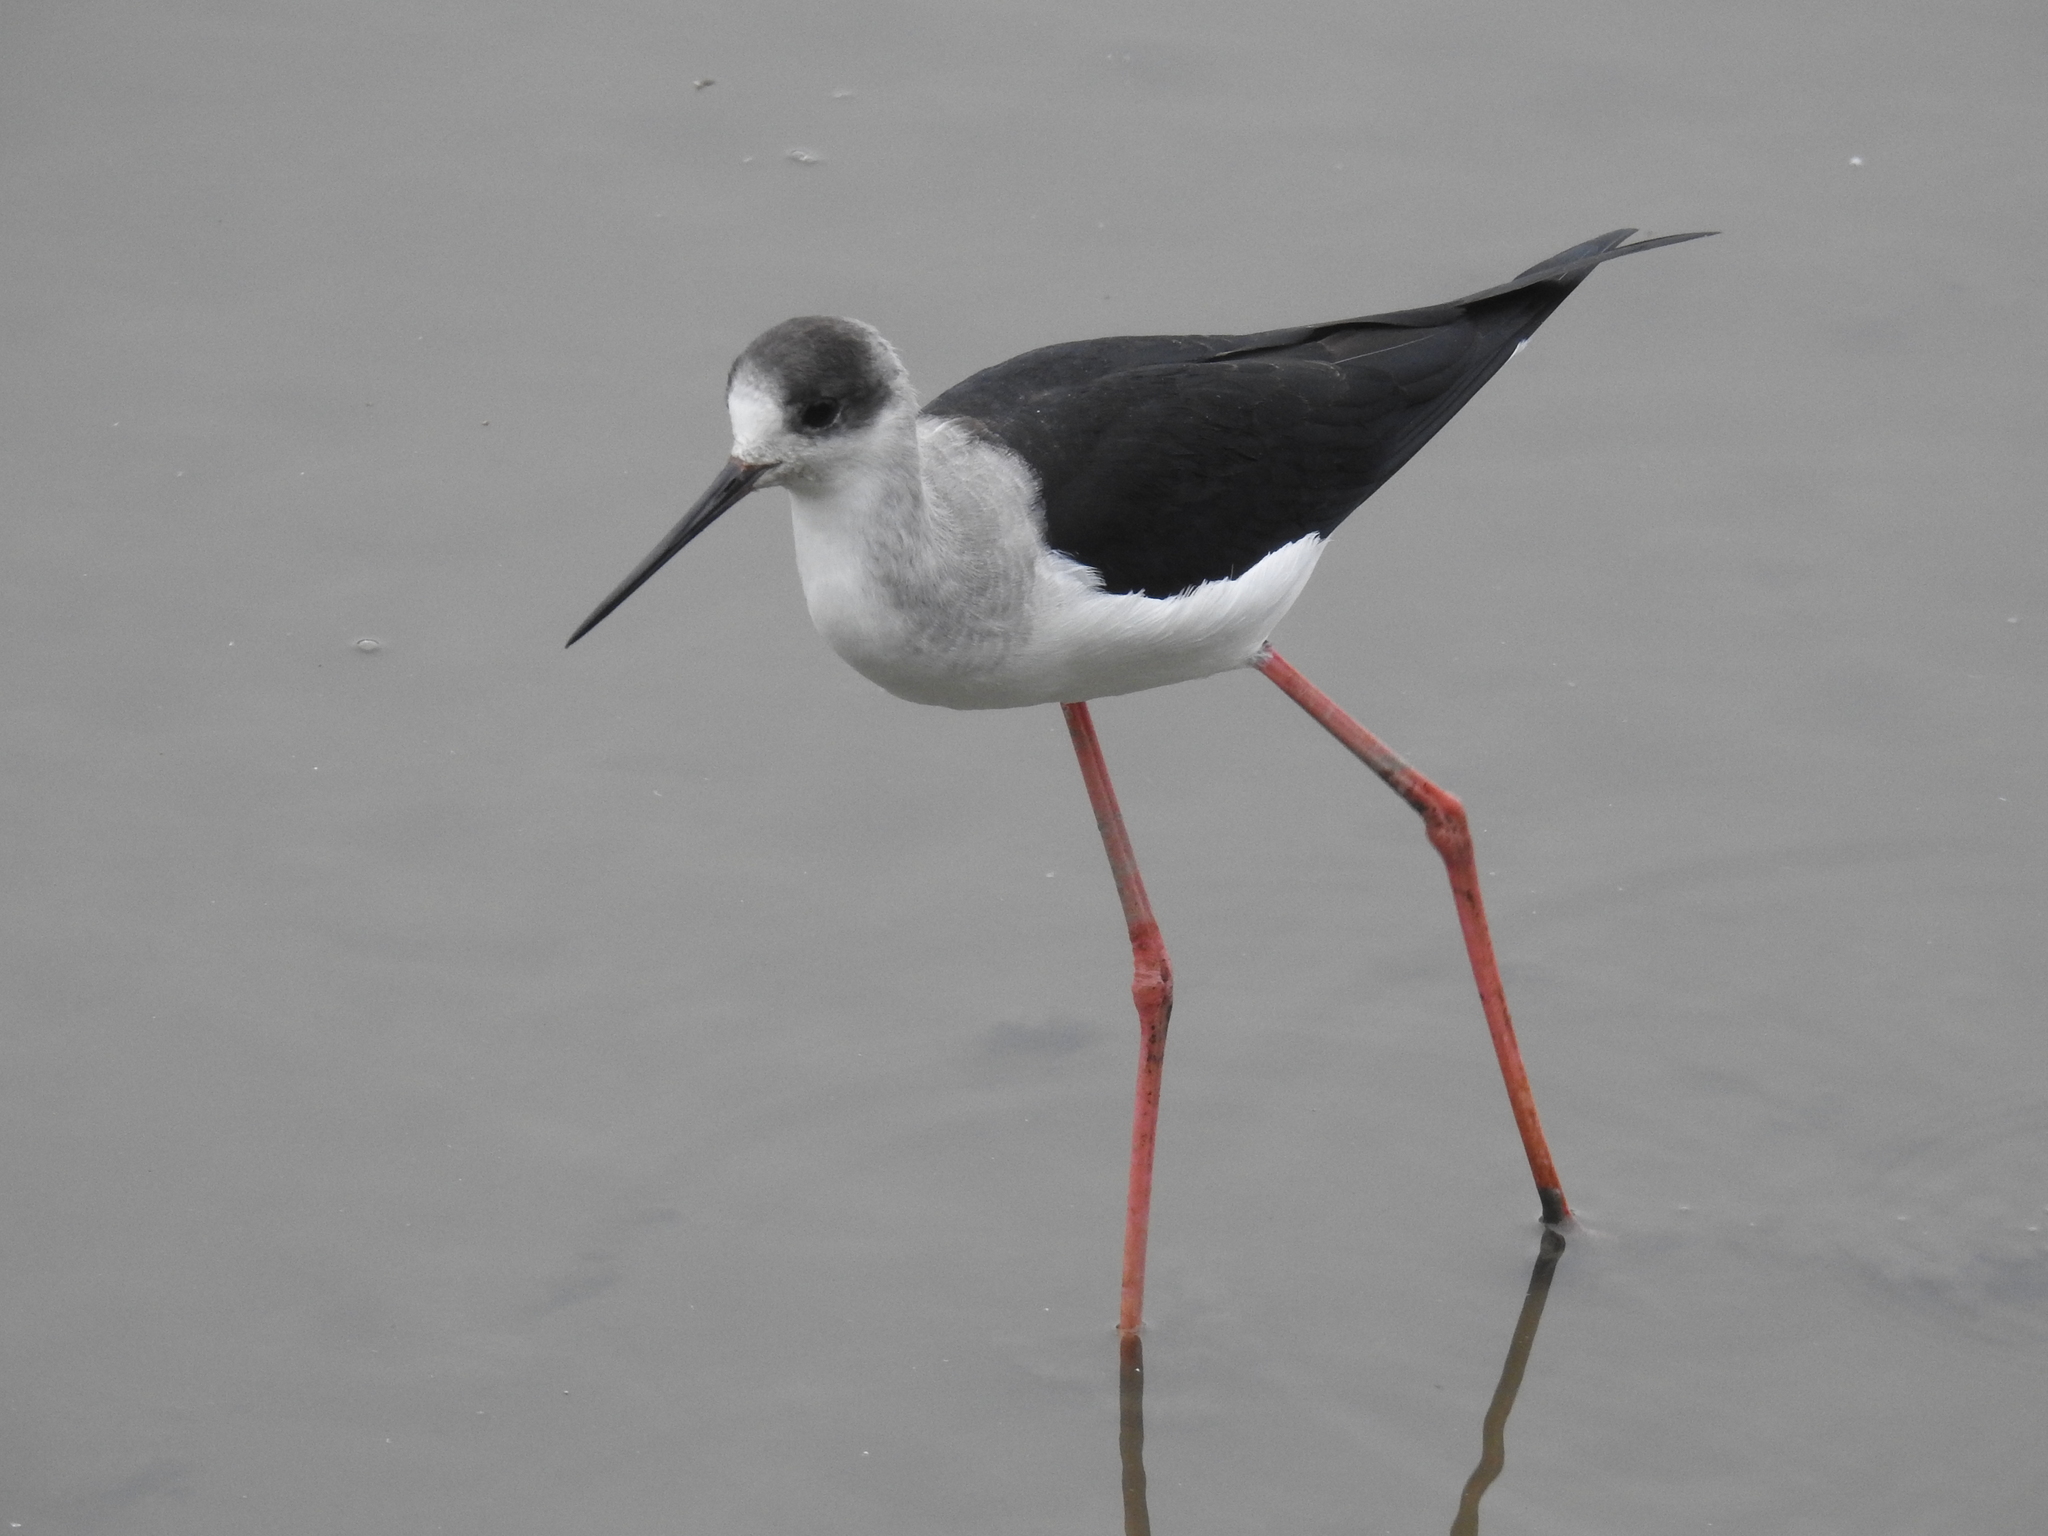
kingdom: Animalia
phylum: Chordata
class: Aves
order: Charadriiformes
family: Recurvirostridae
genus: Himantopus
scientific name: Himantopus himantopus
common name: Black-winged stilt
